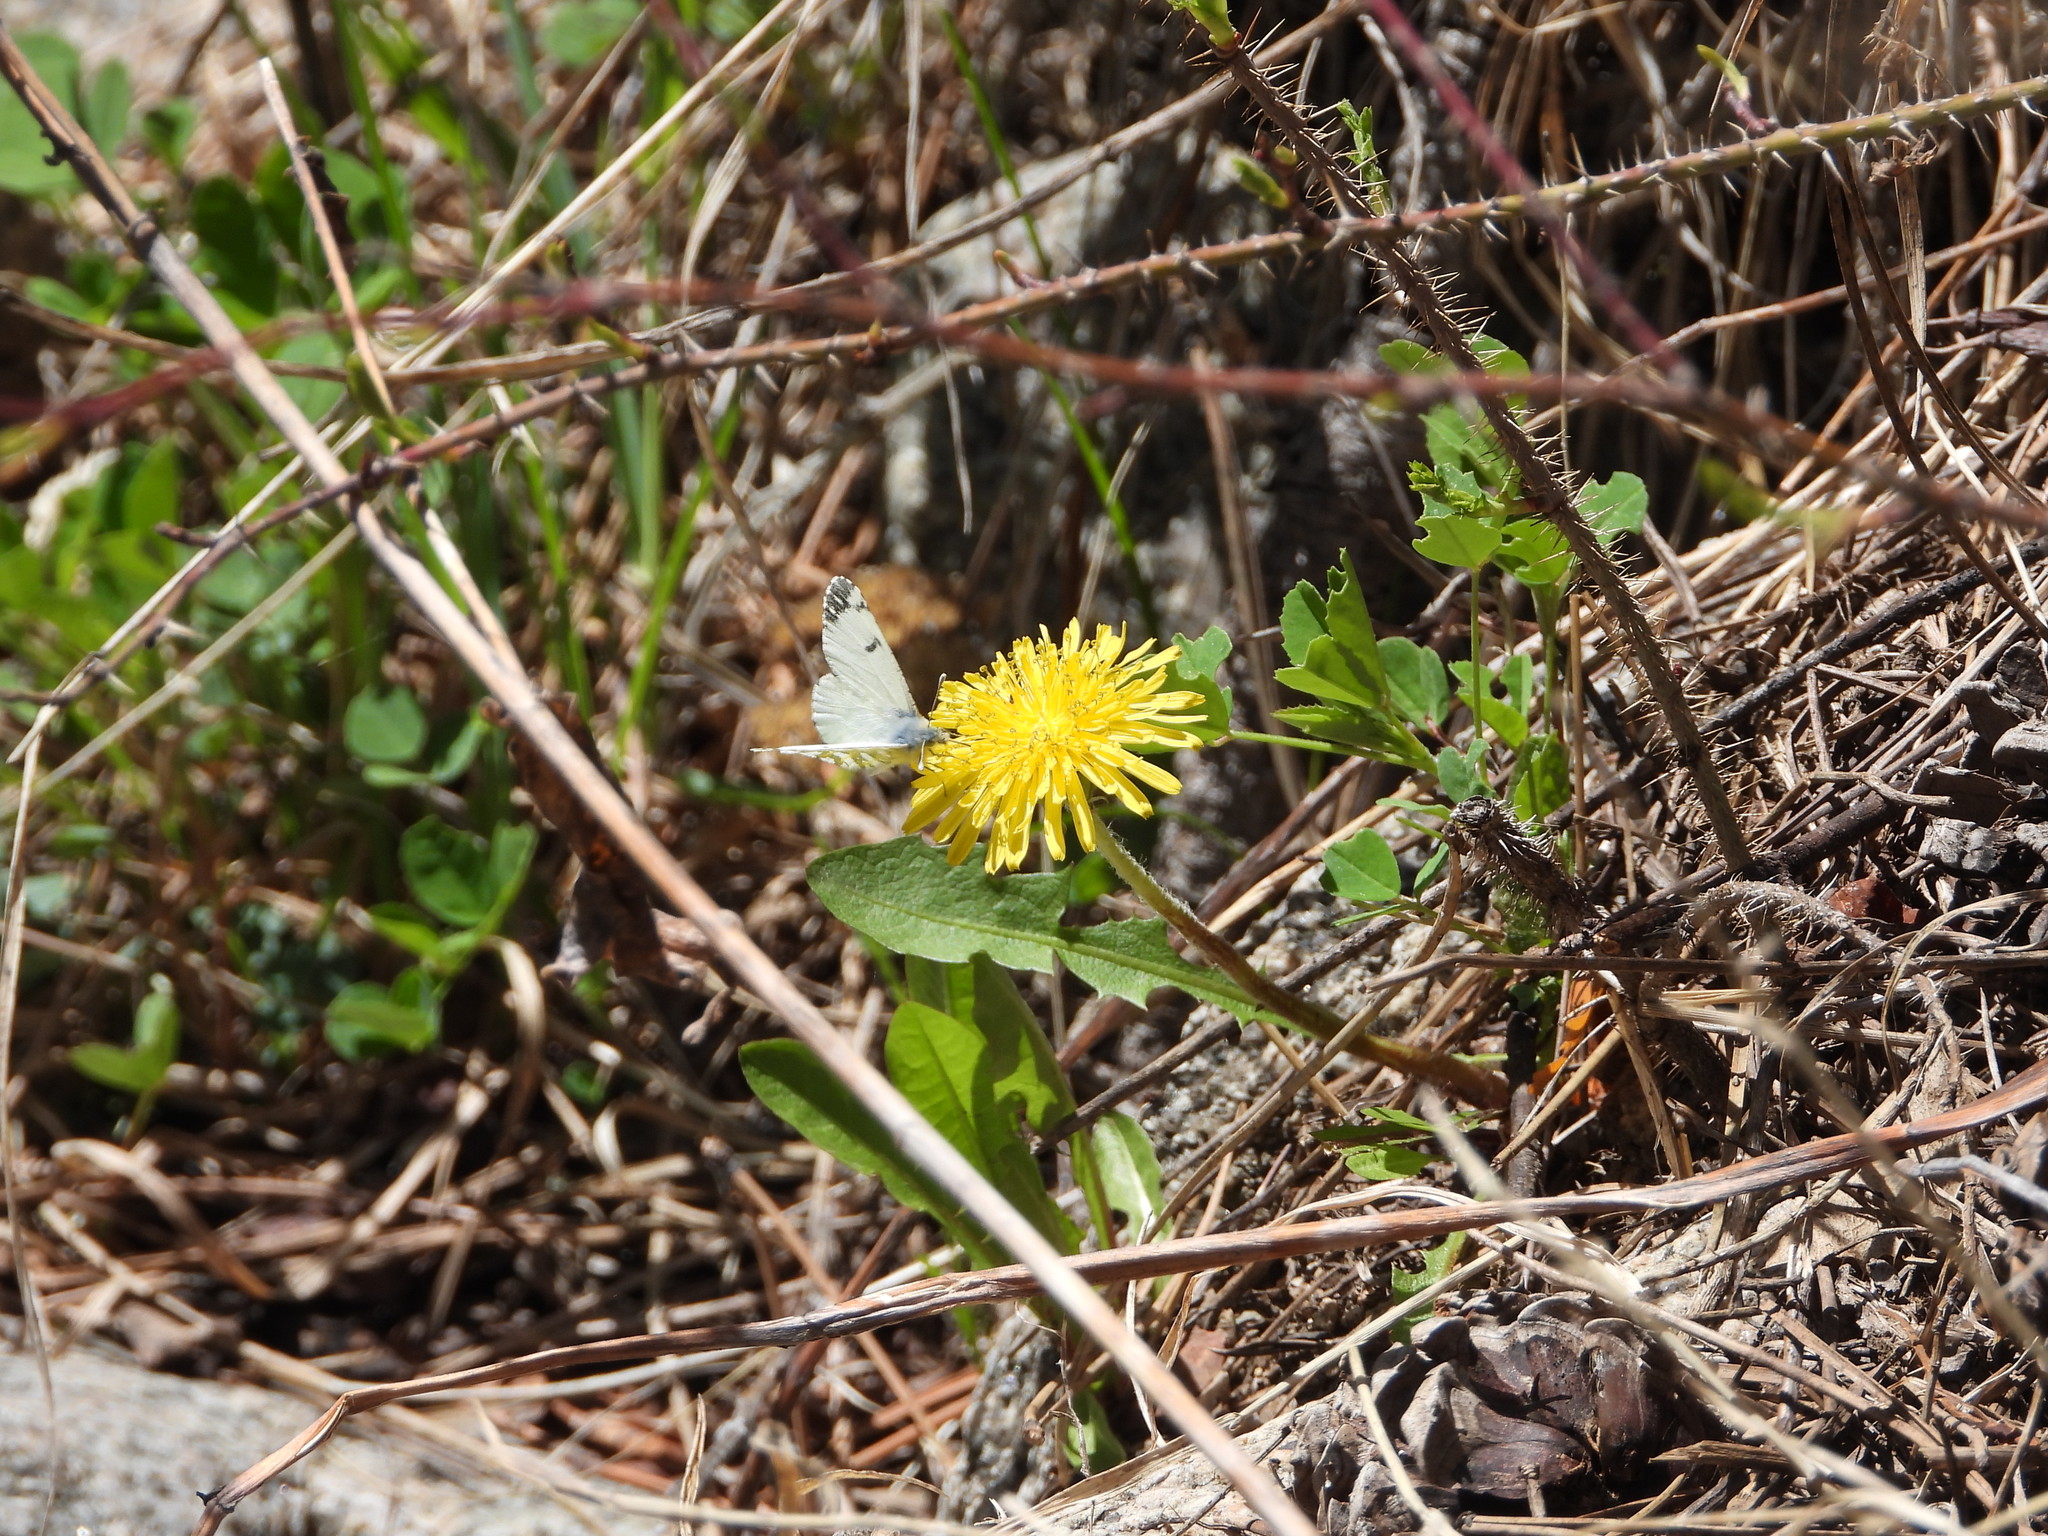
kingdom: Animalia
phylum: Arthropoda
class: Insecta
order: Lepidoptera
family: Pieridae
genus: Euchloe
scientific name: Euchloe ausonides
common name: Creamy marblewing
